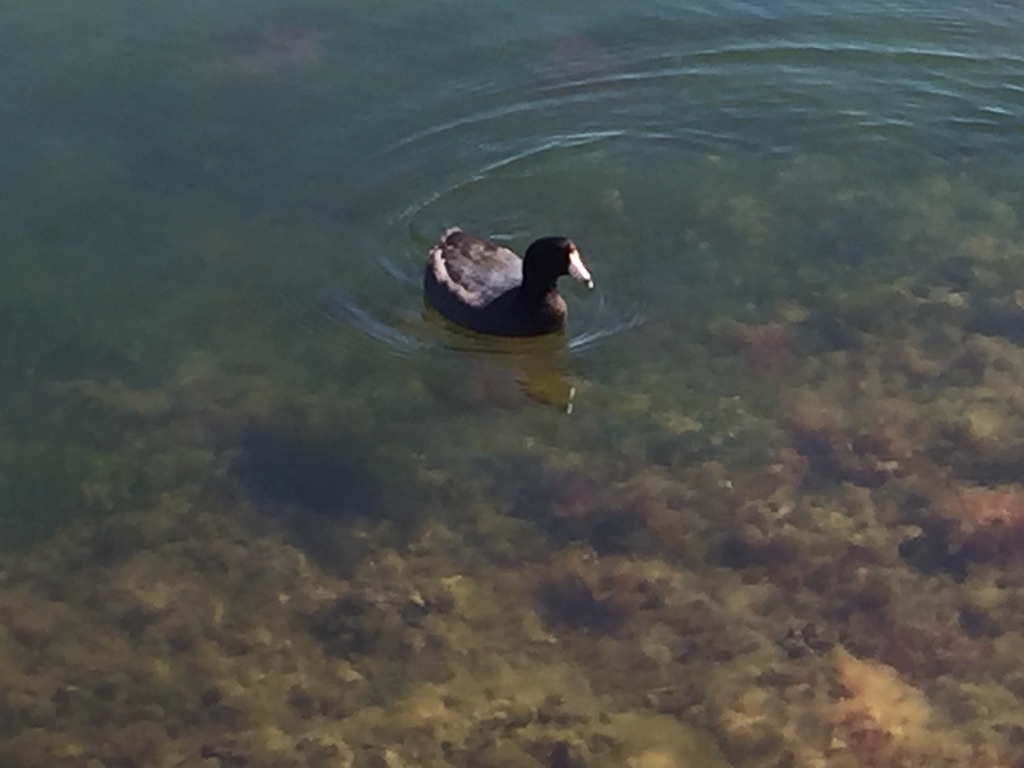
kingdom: Animalia
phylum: Chordata
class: Aves
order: Gruiformes
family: Rallidae
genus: Fulica
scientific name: Fulica americana
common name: American coot
